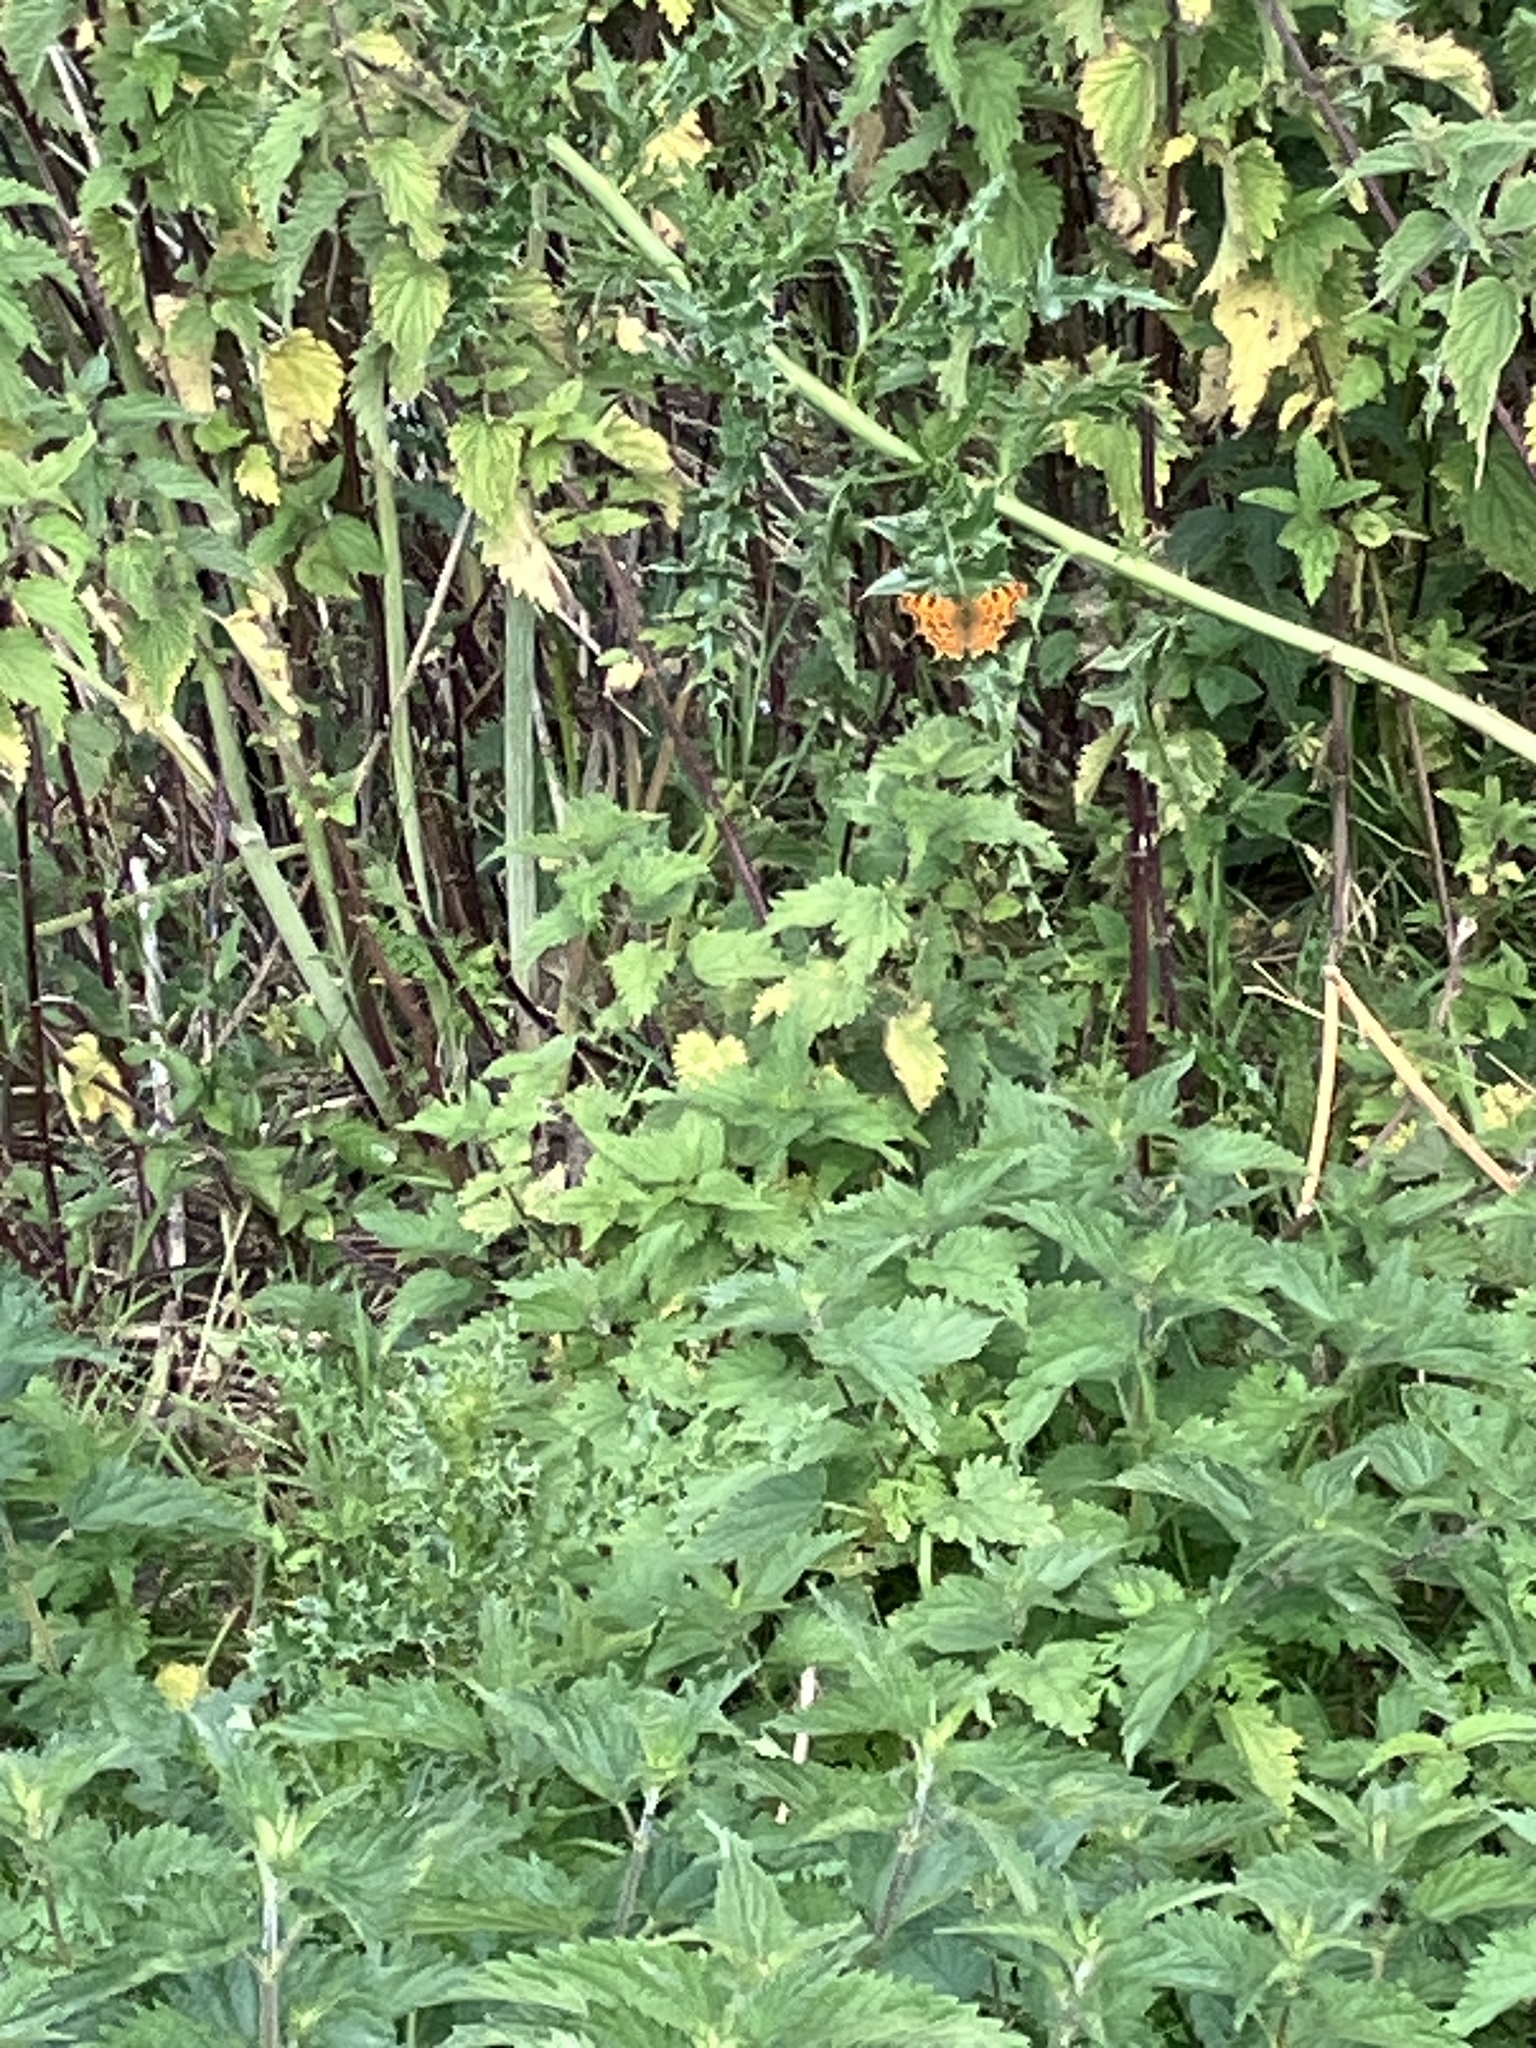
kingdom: Animalia
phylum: Arthropoda
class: Insecta
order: Lepidoptera
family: Nymphalidae
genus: Polygonia
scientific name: Polygonia c-album
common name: Comma
